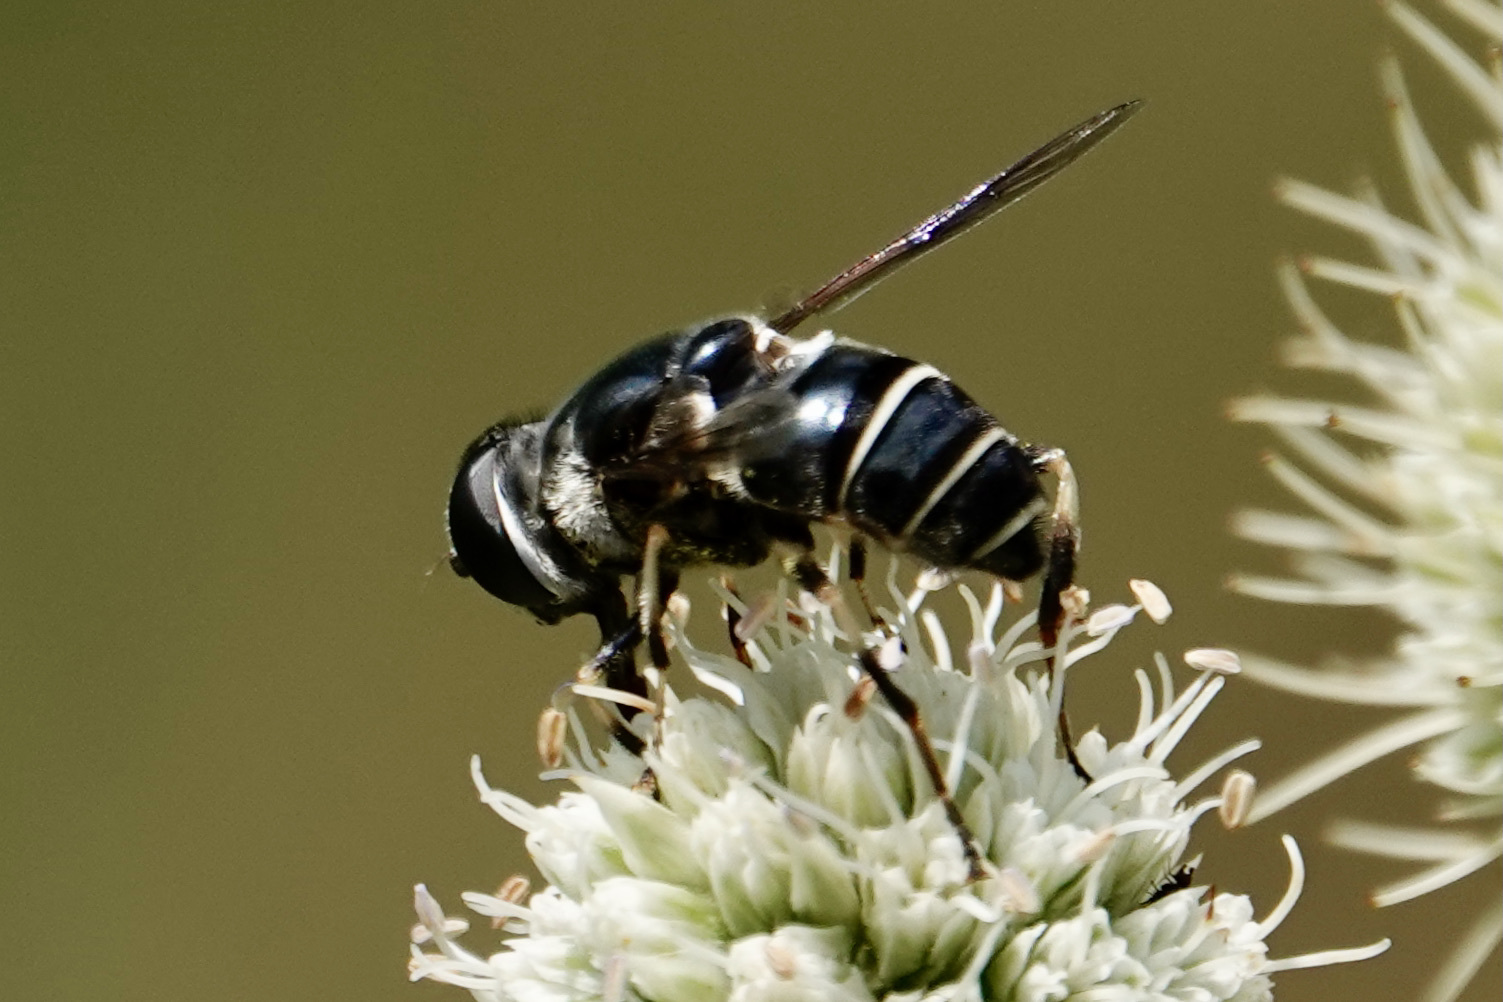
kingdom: Animalia
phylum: Arthropoda
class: Insecta
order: Diptera
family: Syrphidae
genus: Eristalis
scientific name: Eristalis saxorum
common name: Blue-polished drone fly
